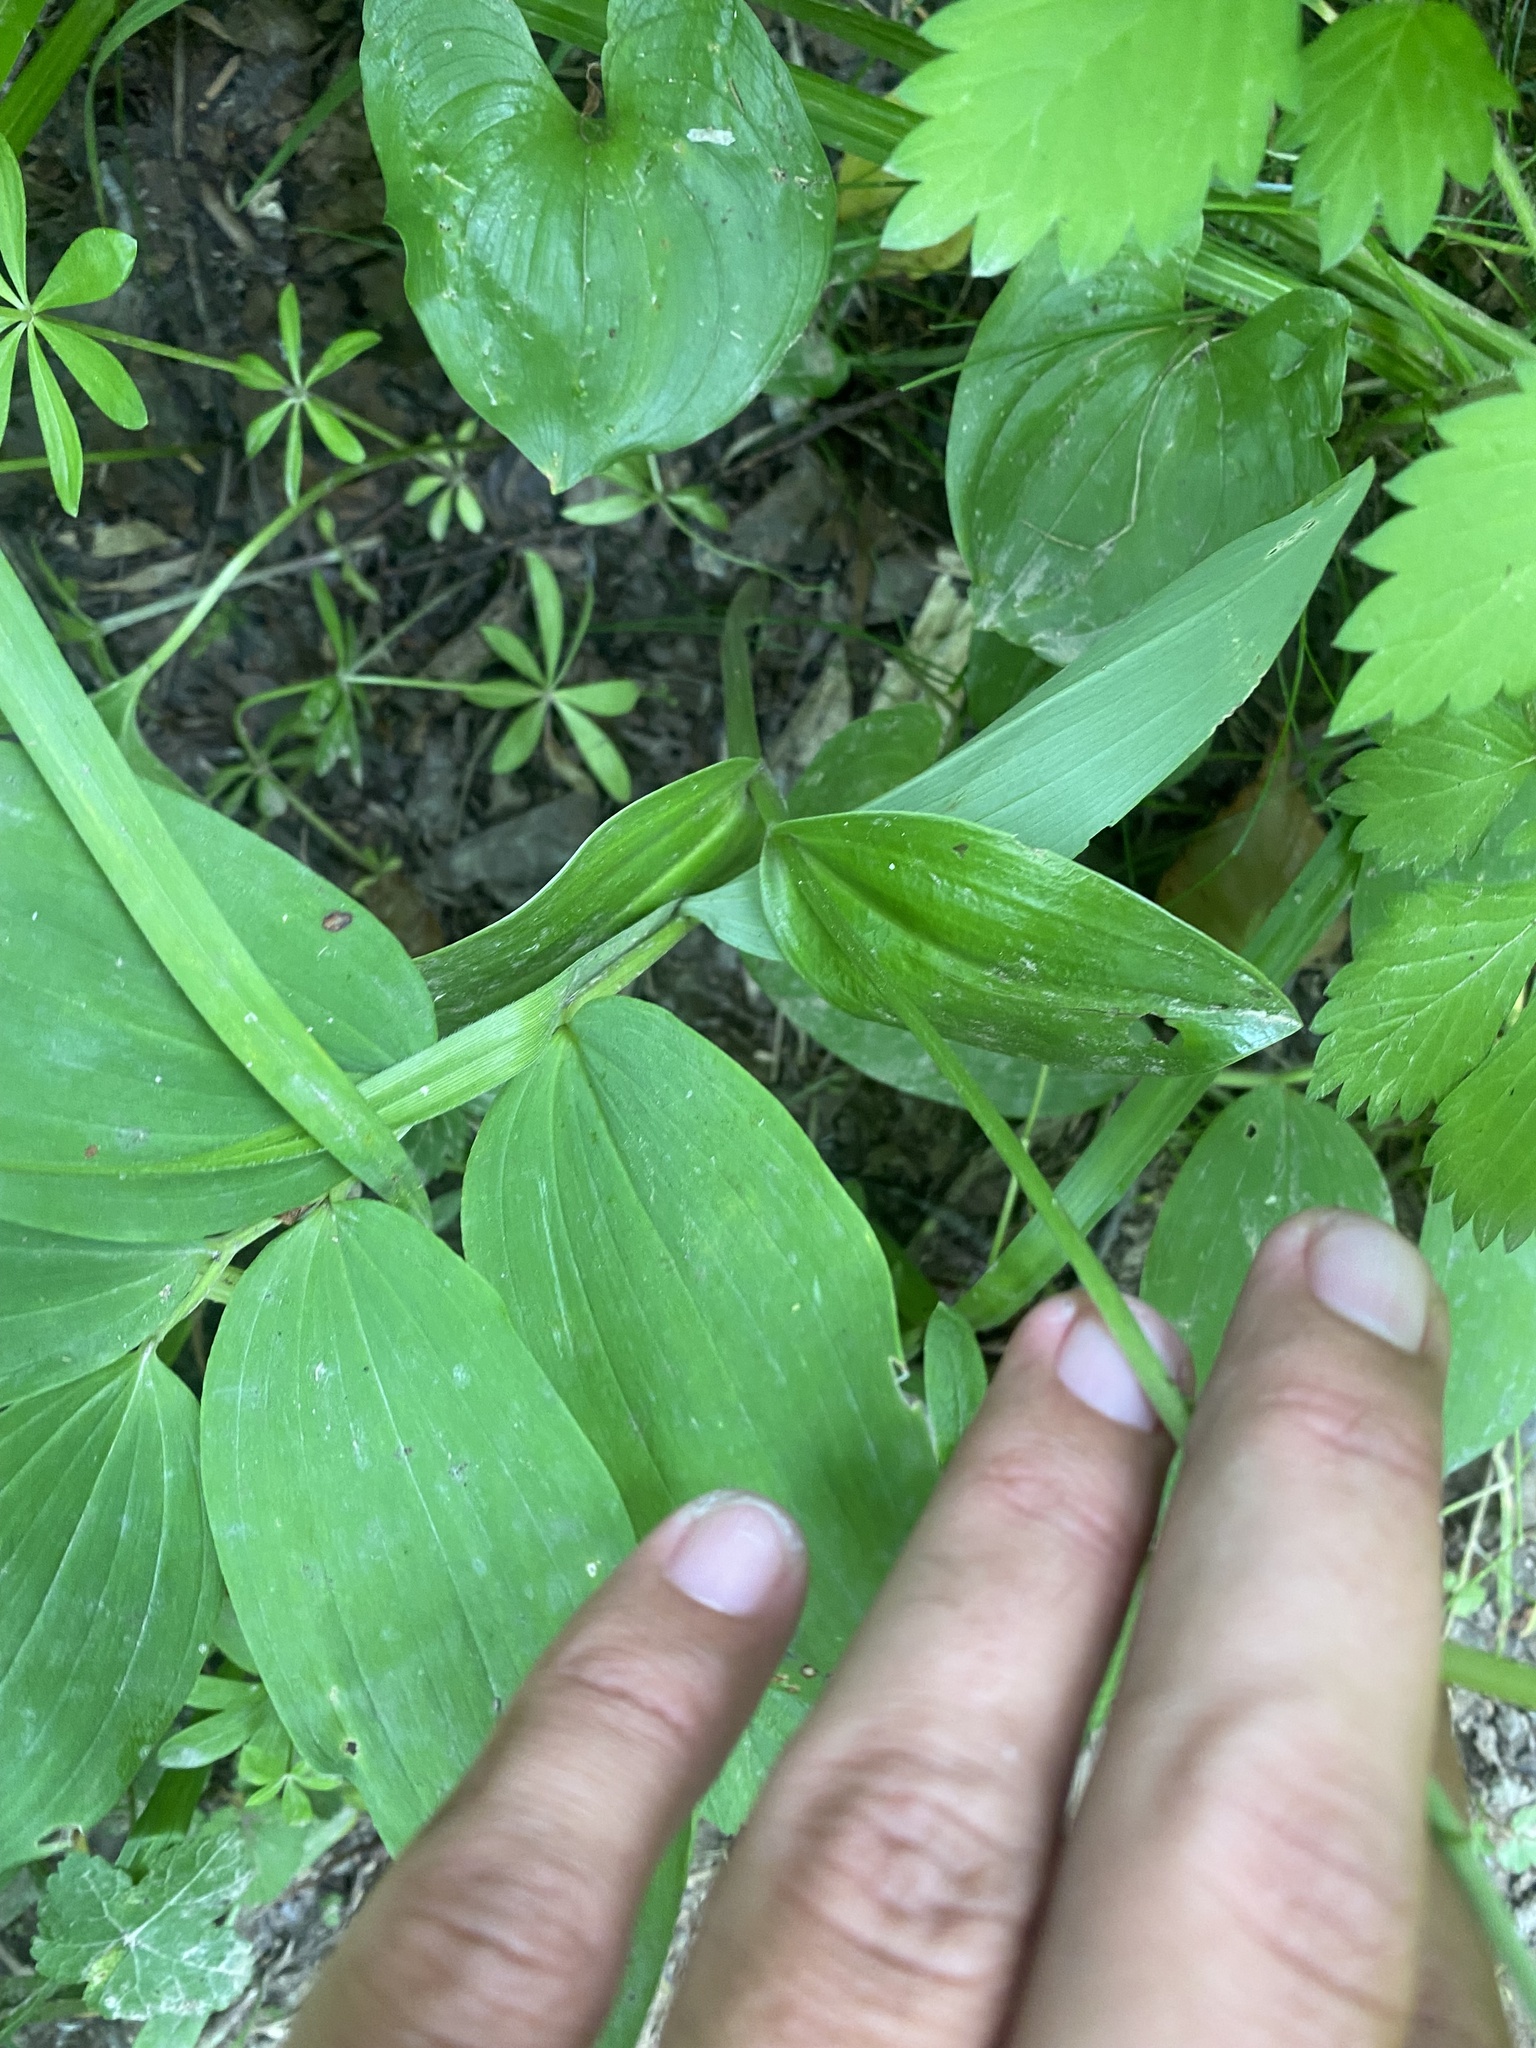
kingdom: Plantae
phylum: Tracheophyta
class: Liliopsida
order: Asparagales
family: Orchidaceae
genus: Platanthera
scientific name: Platanthera chorisiana
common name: Chamisso's orchid
